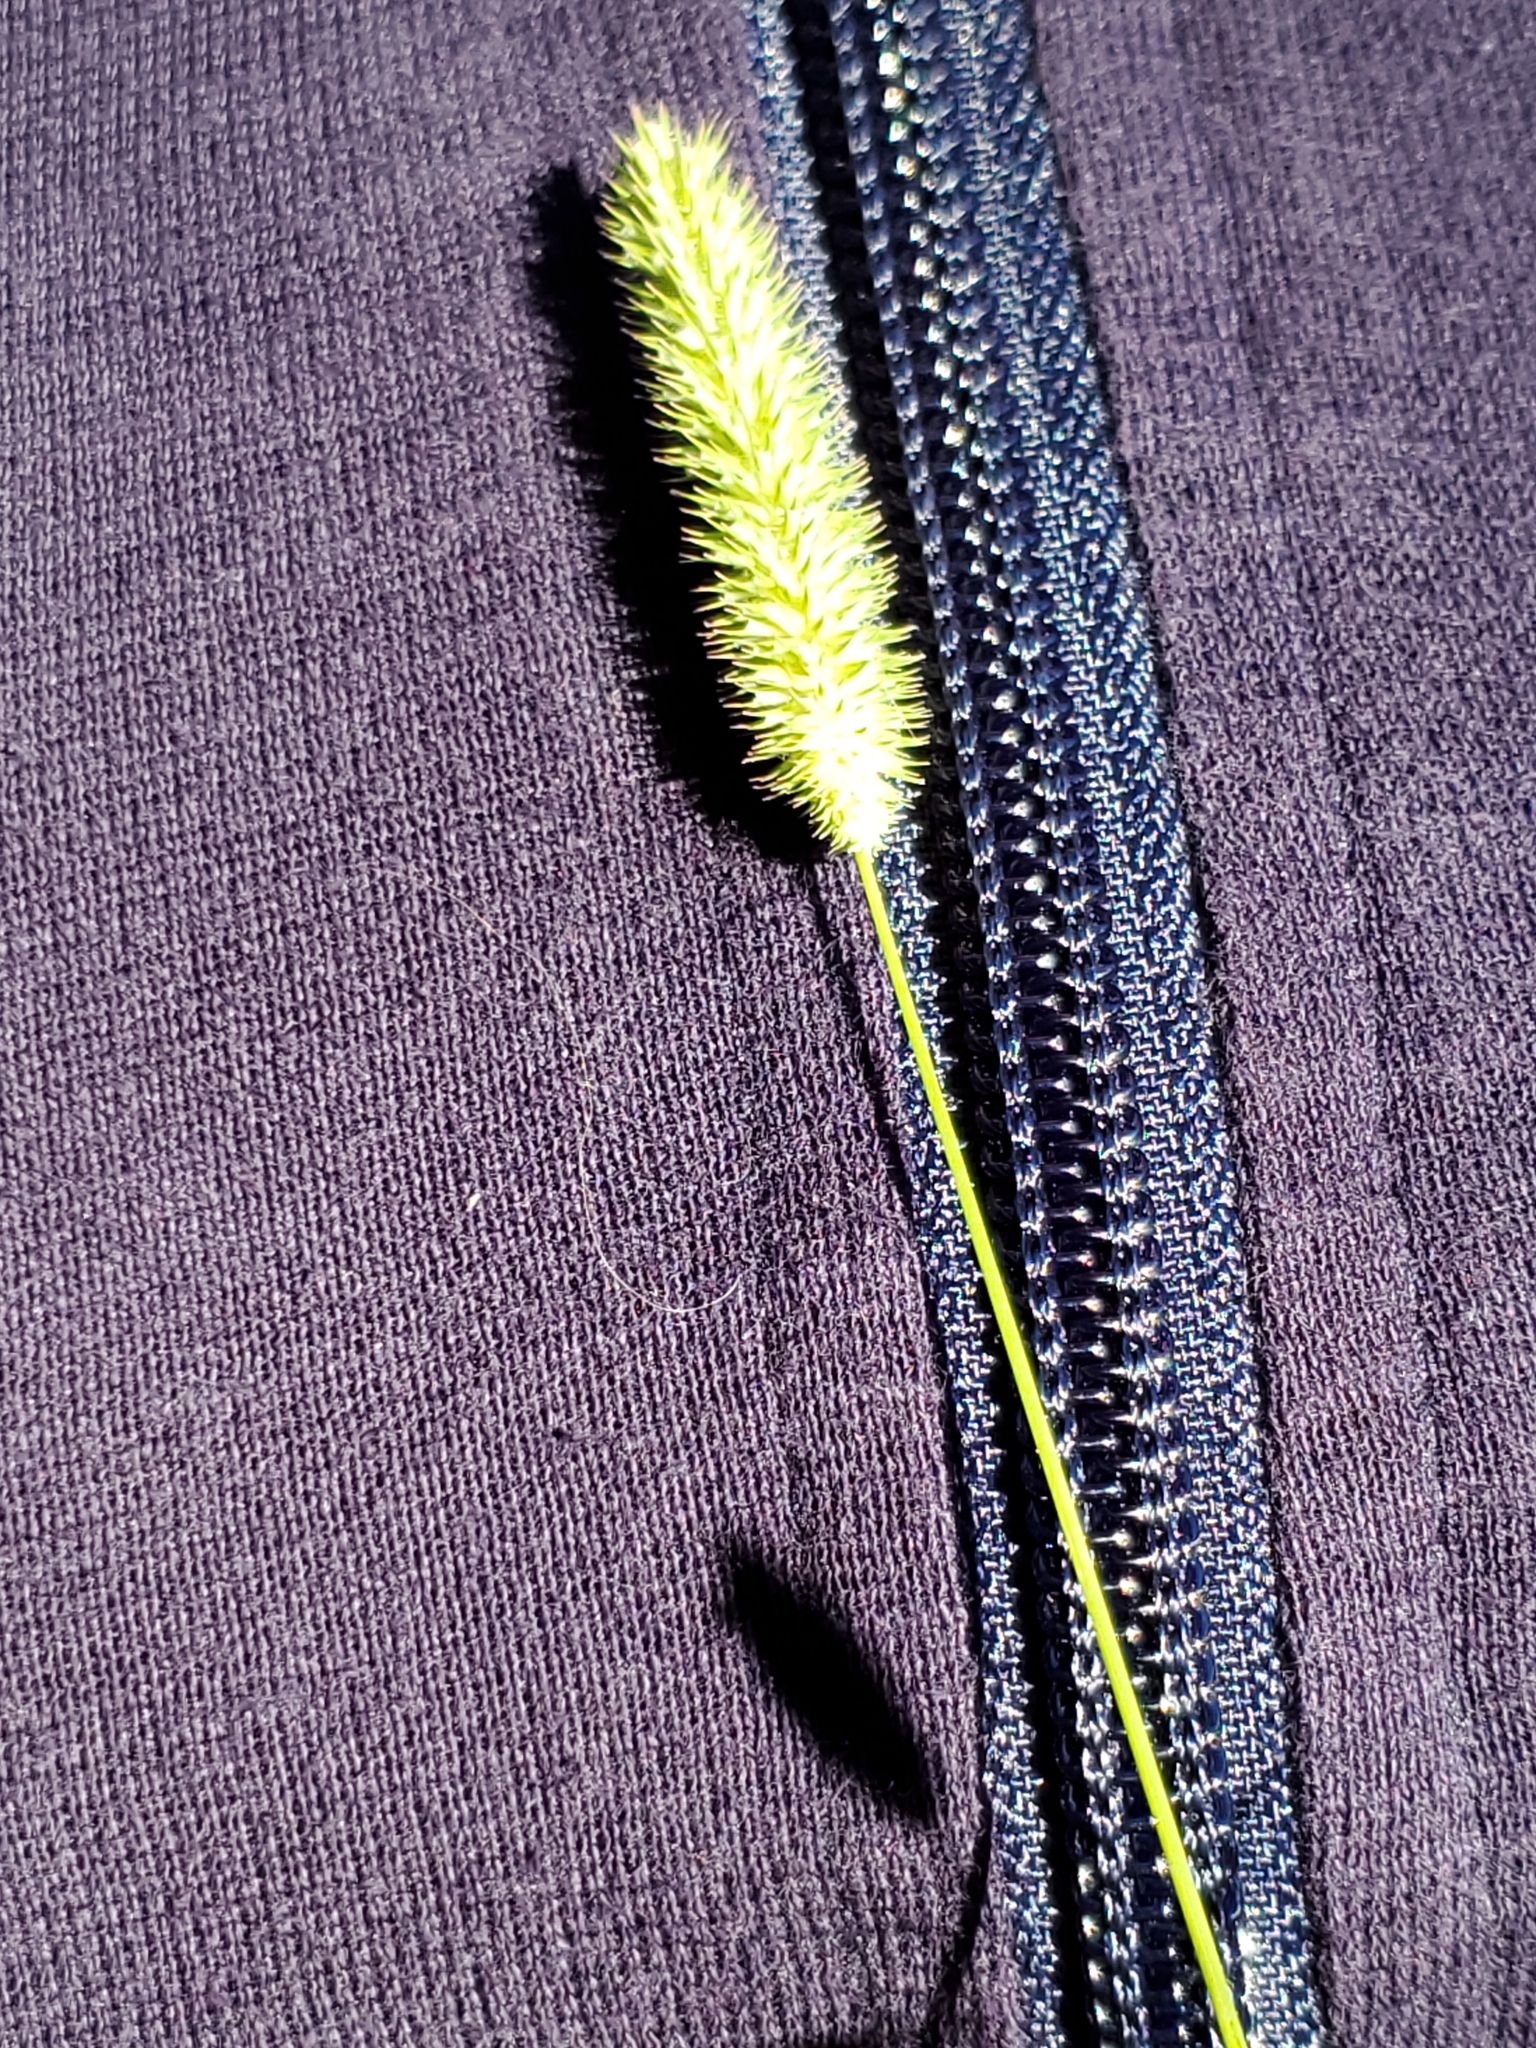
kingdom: Plantae
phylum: Tracheophyta
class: Liliopsida
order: Poales
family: Poaceae
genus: Phleum
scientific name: Phleum pratense
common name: Timothy grass
